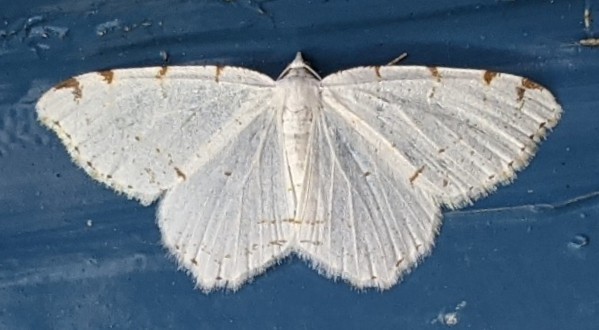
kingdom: Animalia
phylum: Arthropoda
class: Insecta
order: Lepidoptera
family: Geometridae
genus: Macaria
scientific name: Macaria pustularia
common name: Lesser maple spanworm moth
